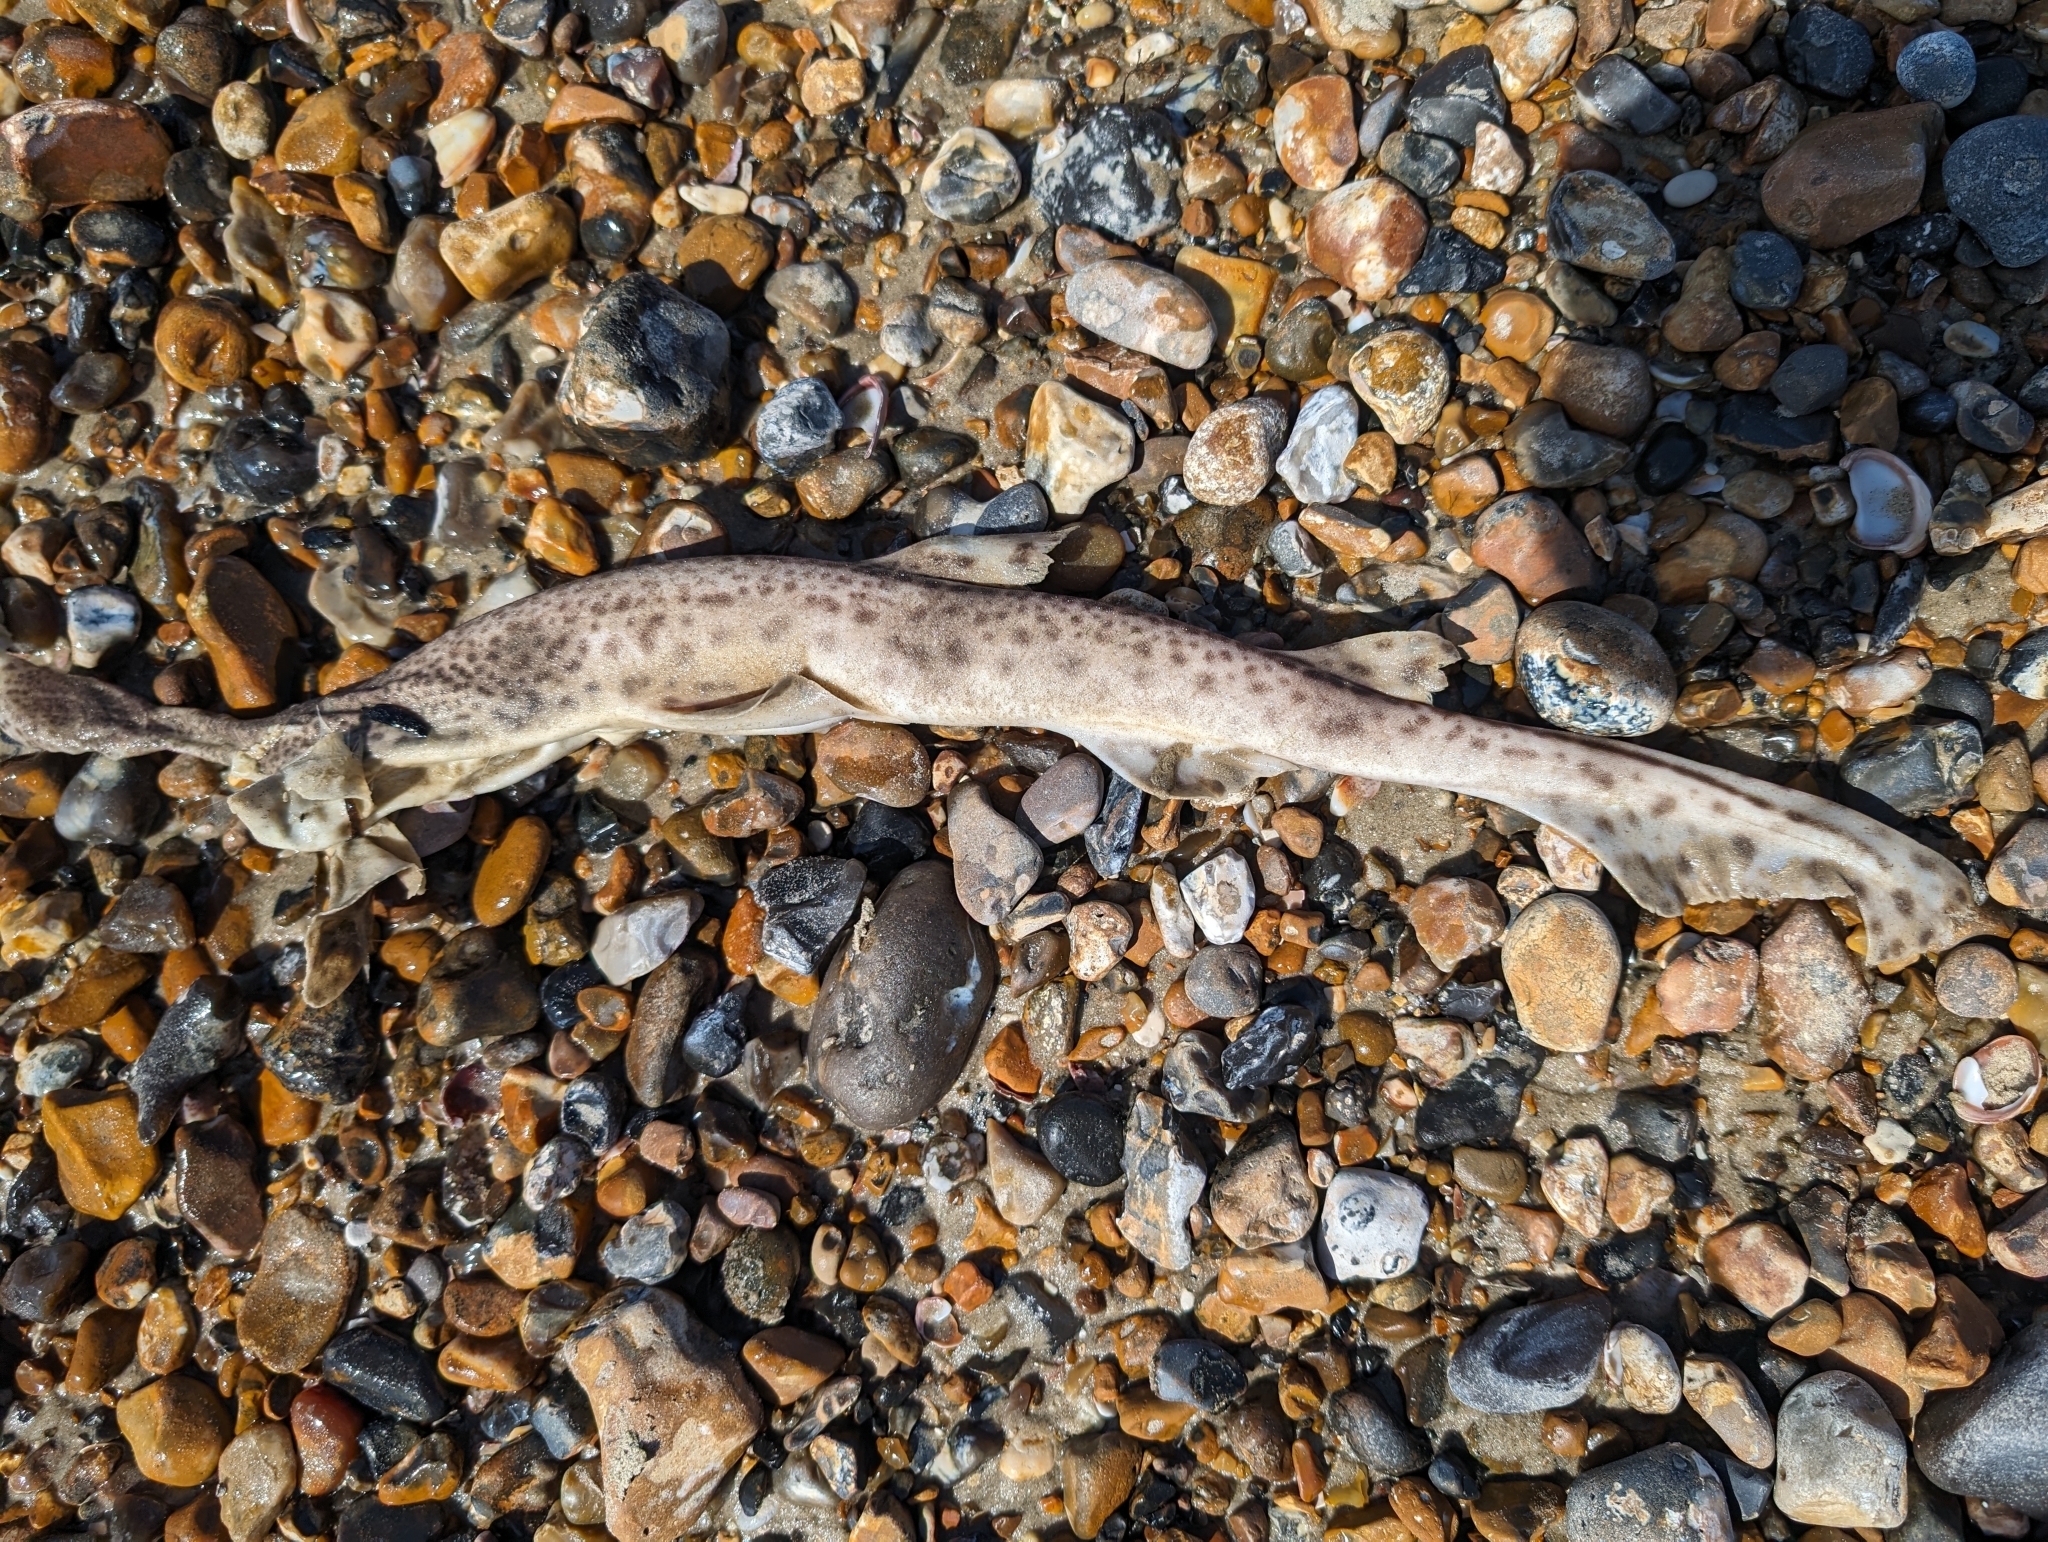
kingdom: Animalia
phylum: Chordata
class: Elasmobranchii
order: Carcharhiniformes
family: Scyliorhinidae
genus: Scyliorhinus
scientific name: Scyliorhinus canicula
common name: Lesser spotted dogfish
